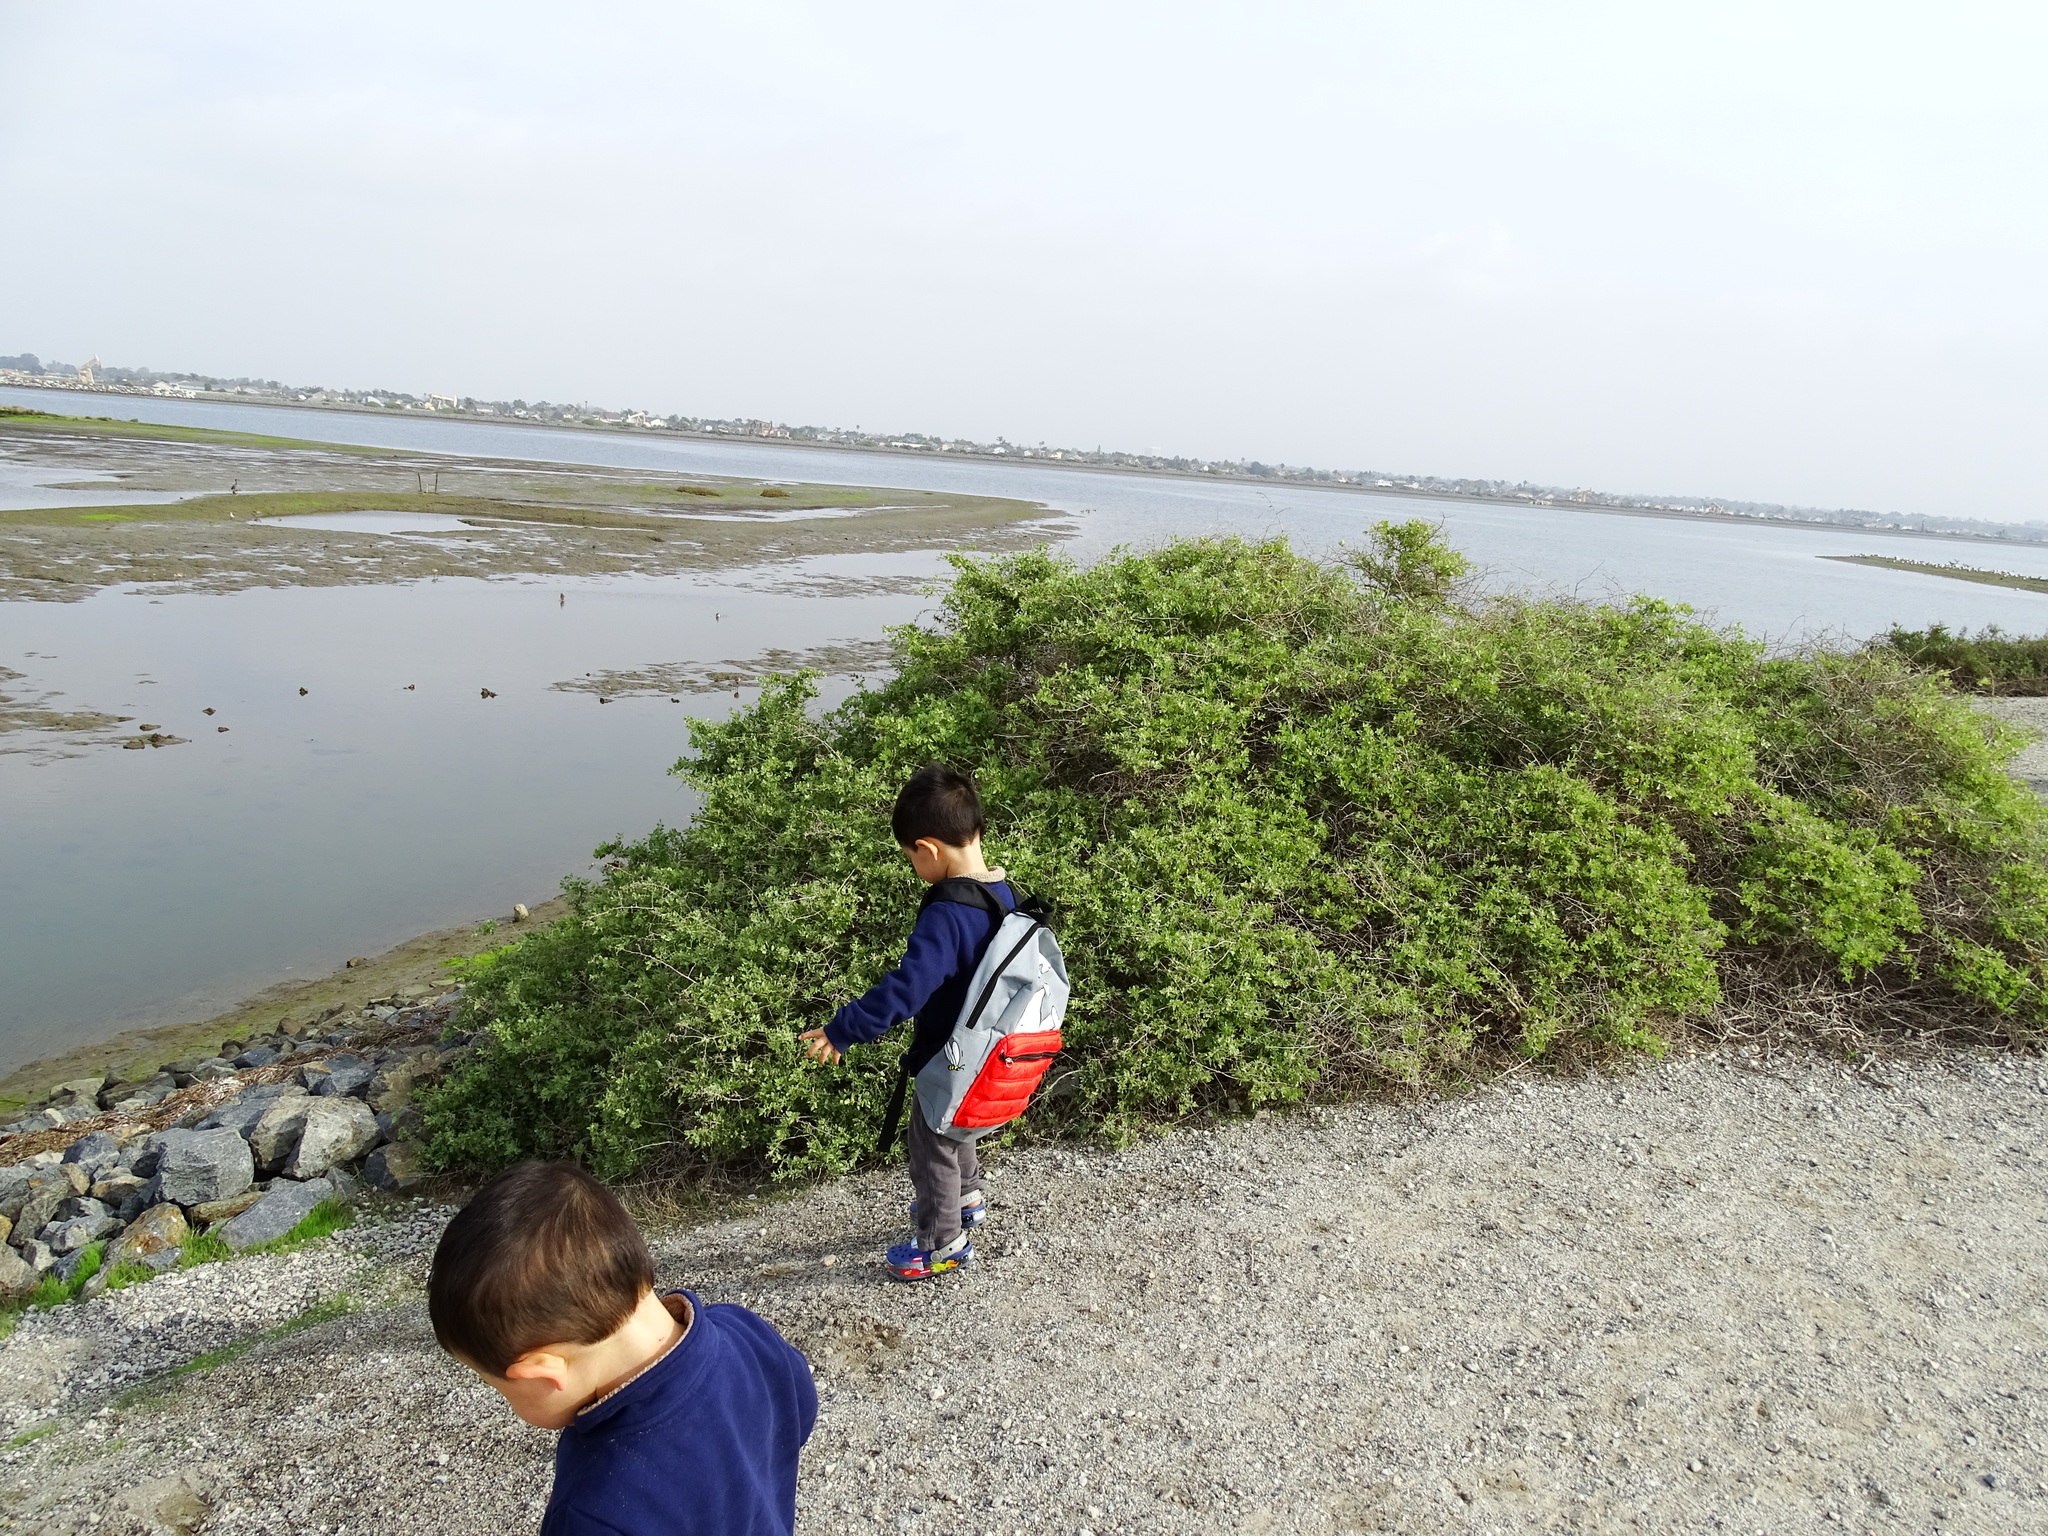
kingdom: Plantae
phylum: Tracheophyta
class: Magnoliopsida
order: Caryophyllales
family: Amaranthaceae
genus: Atriplex
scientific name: Atriplex lentiformis
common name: Big saltbush
